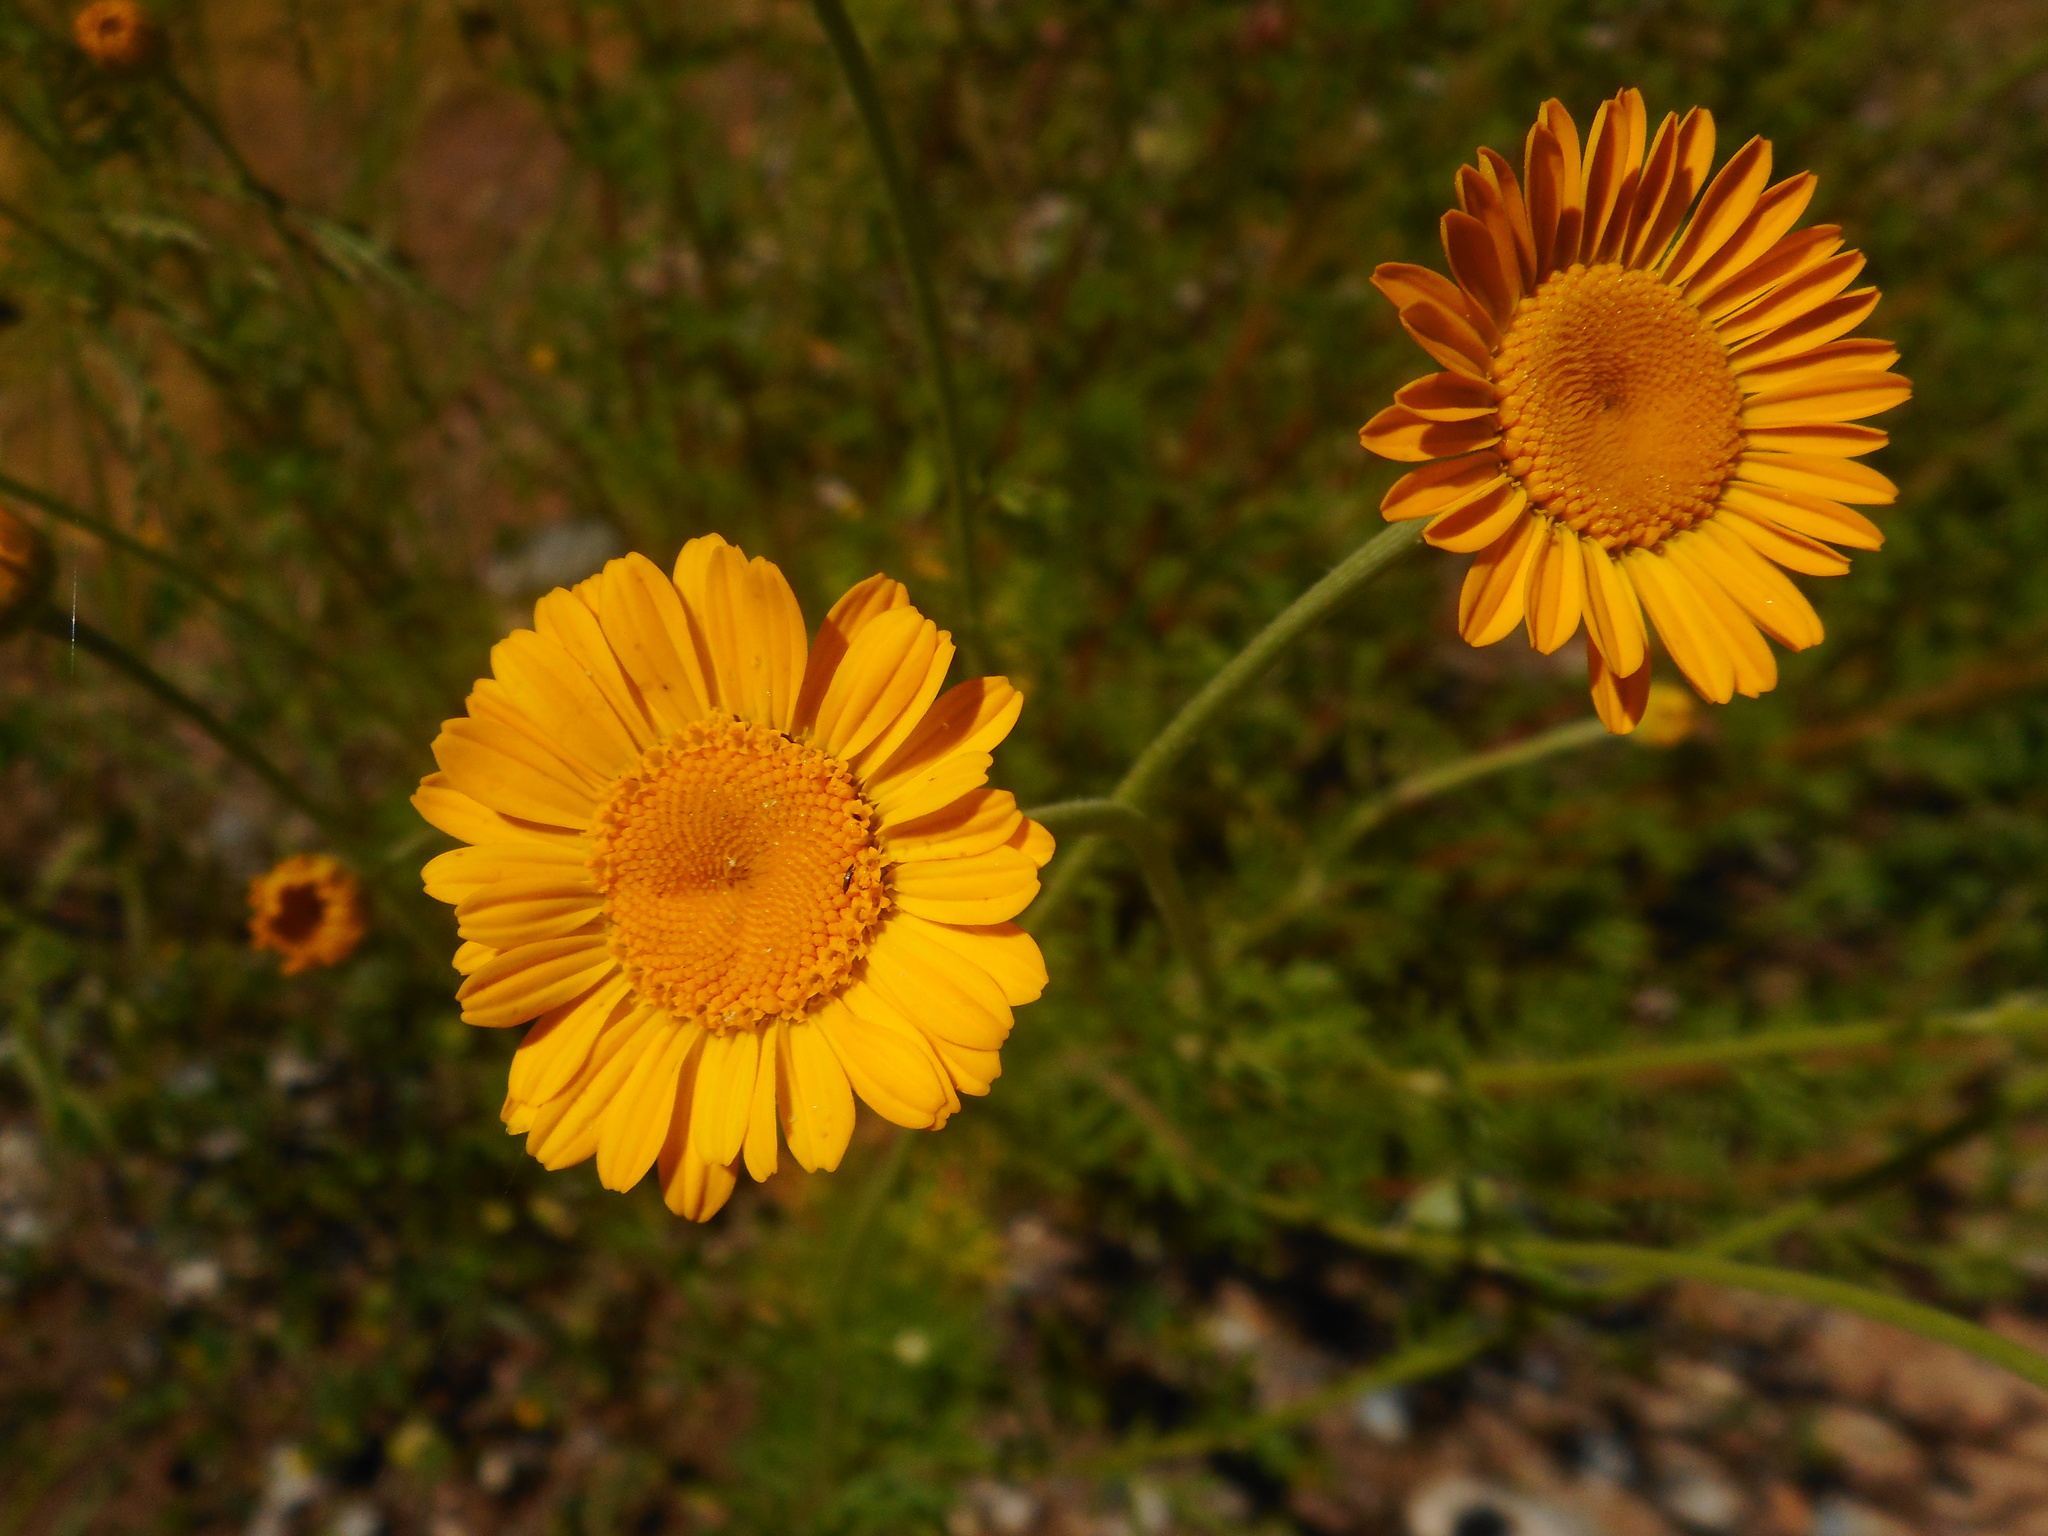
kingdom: Plantae
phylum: Tracheophyta
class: Magnoliopsida
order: Asterales
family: Asteraceae
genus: Cota
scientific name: Cota tinctoria
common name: Golden chamomile
